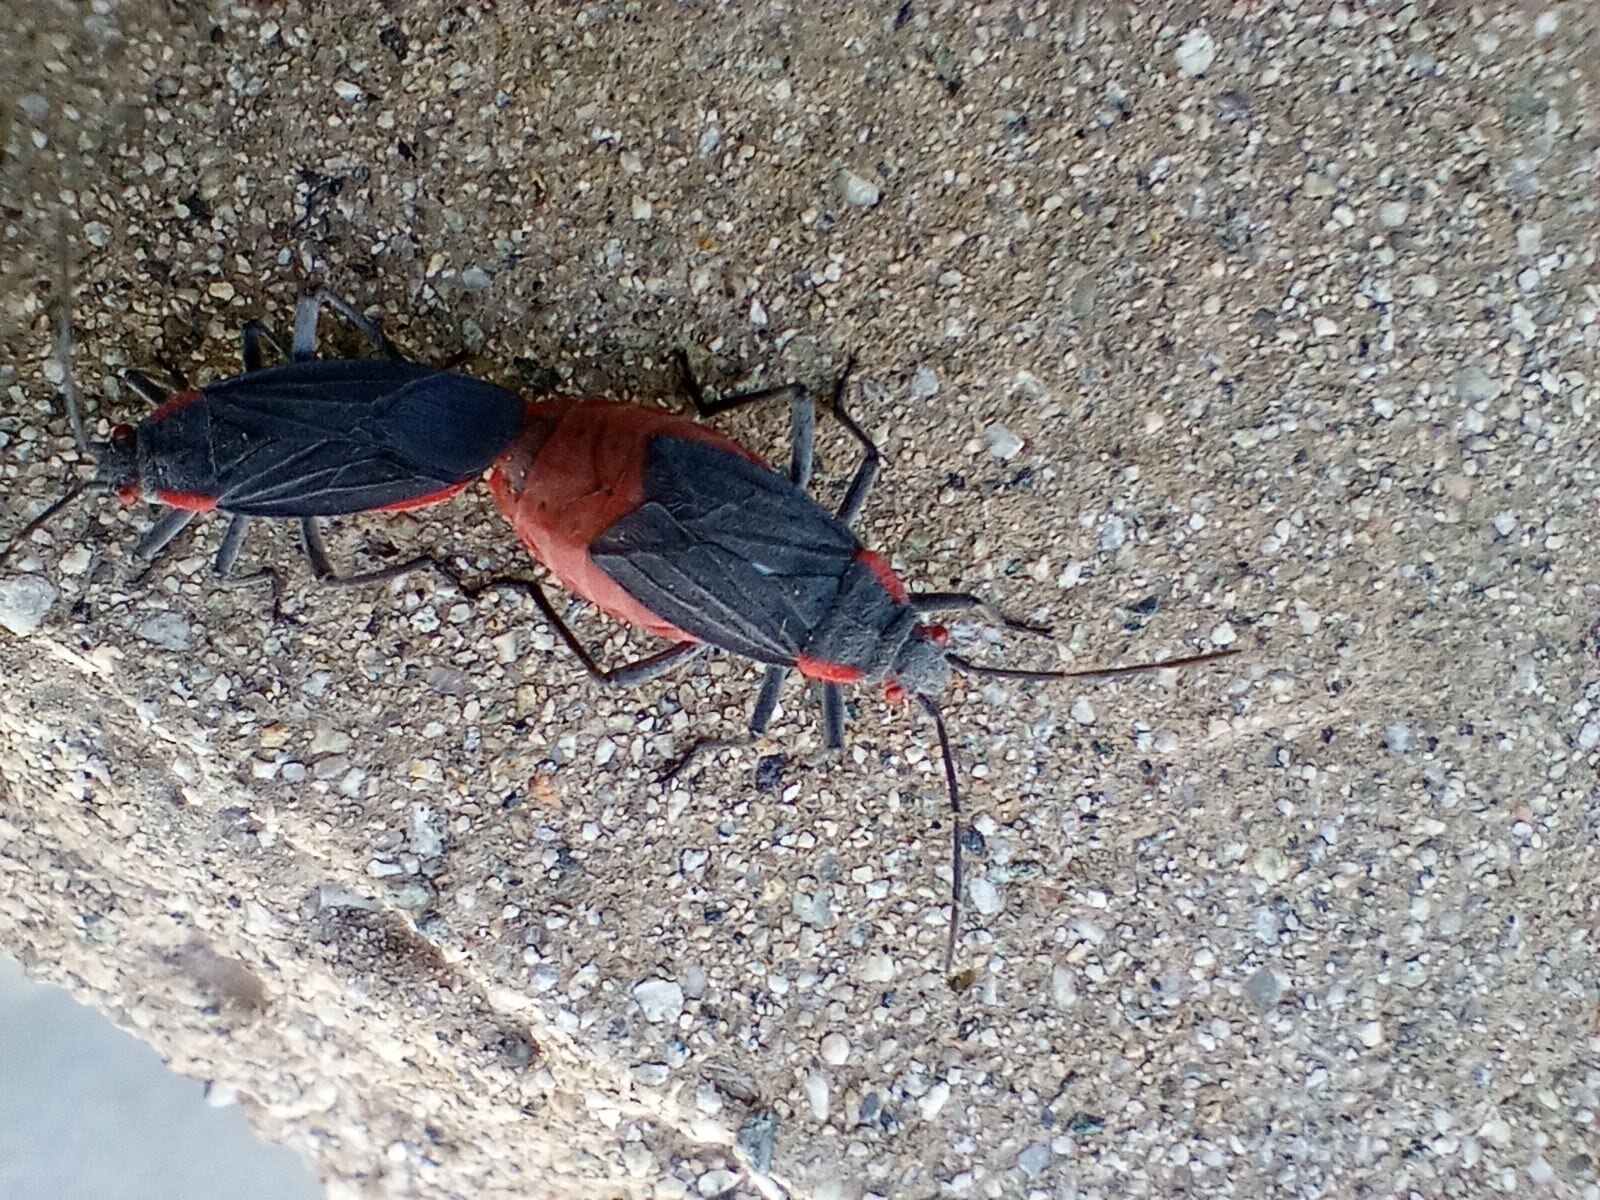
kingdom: Animalia
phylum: Arthropoda
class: Insecta
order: Hemiptera
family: Rhopalidae
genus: Jadera
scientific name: Jadera haematoloma
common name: Red-shouldered bug
